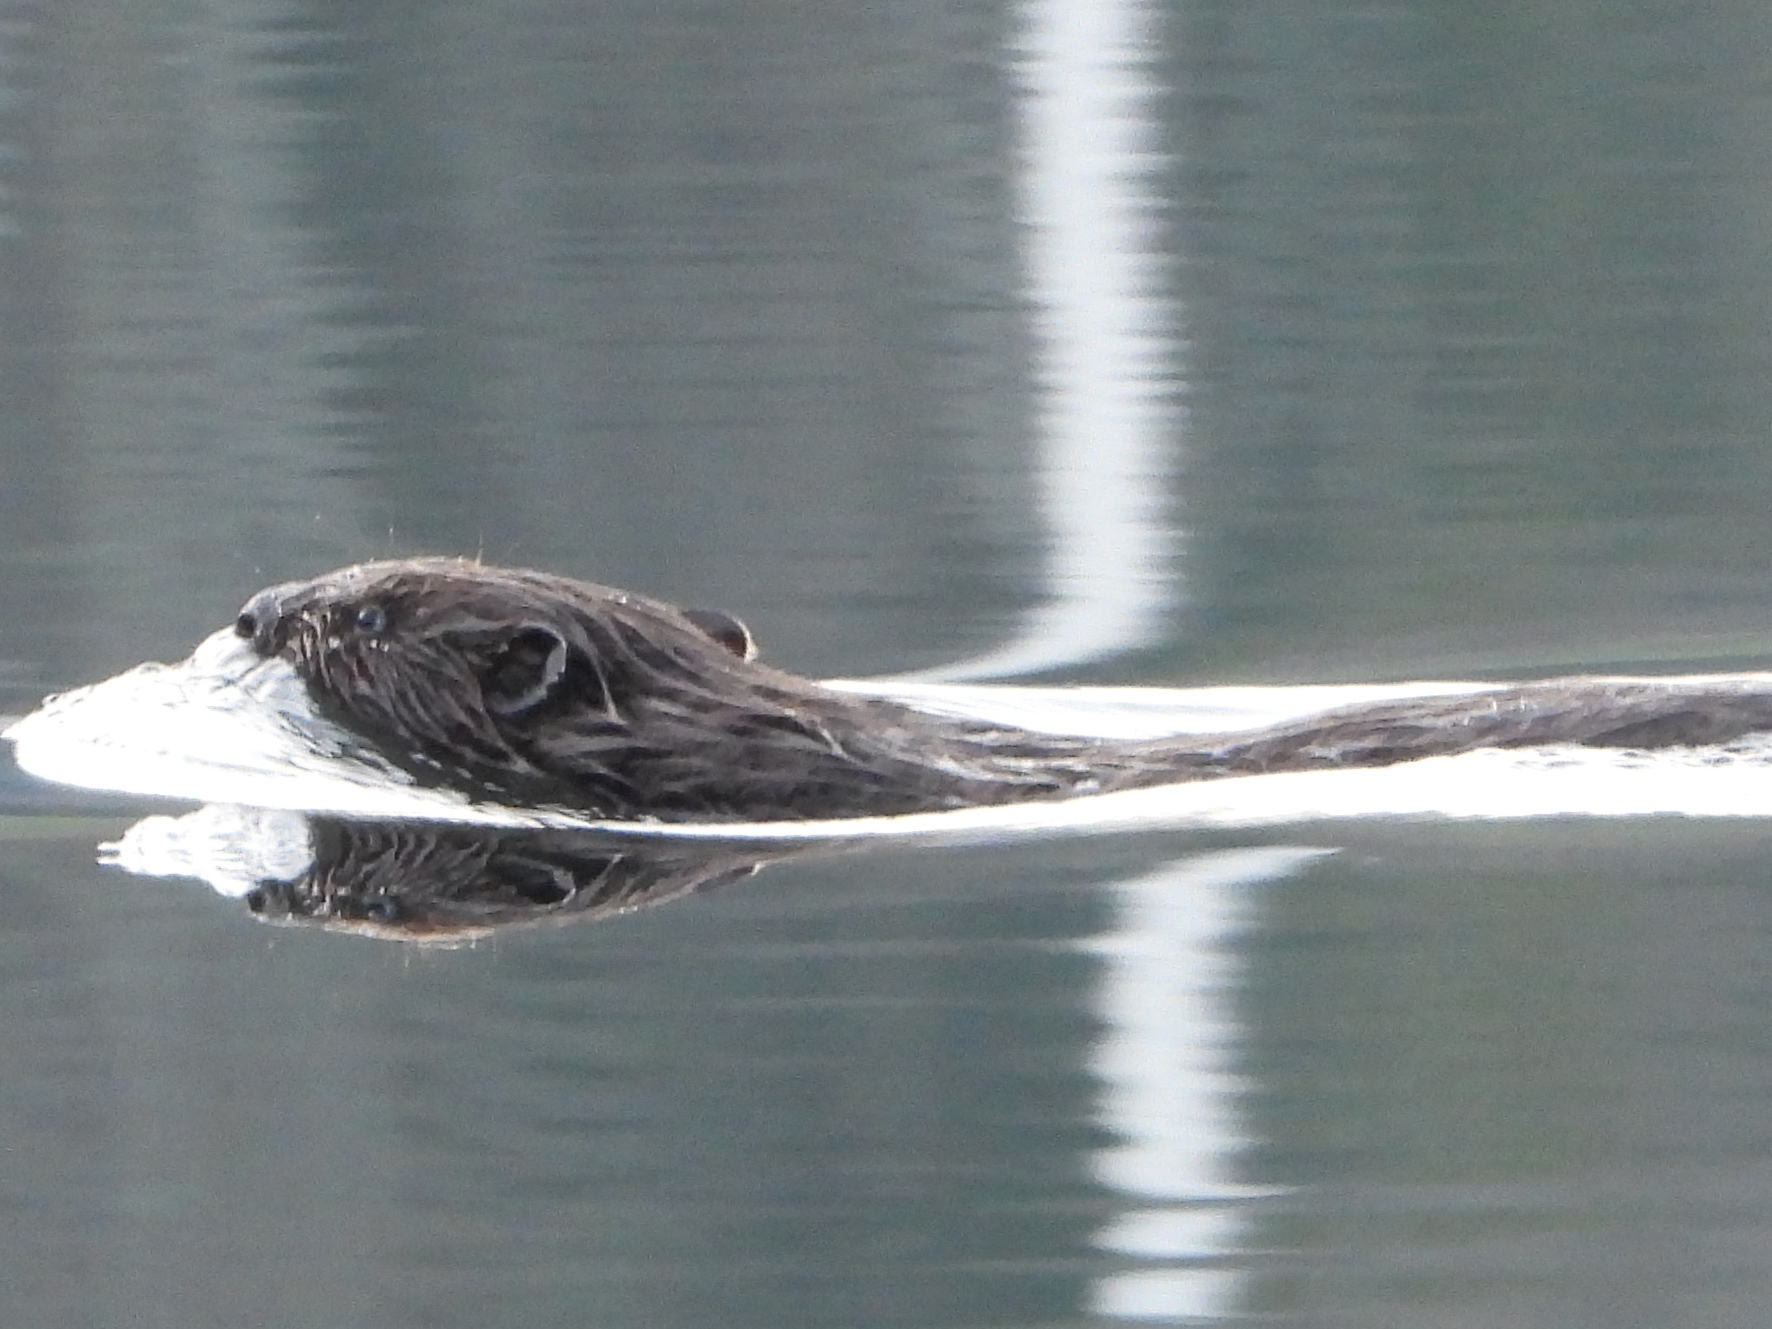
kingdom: Animalia
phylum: Chordata
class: Mammalia
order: Rodentia
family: Castoridae
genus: Castor
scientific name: Castor fiber
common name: Eurasian beaver
